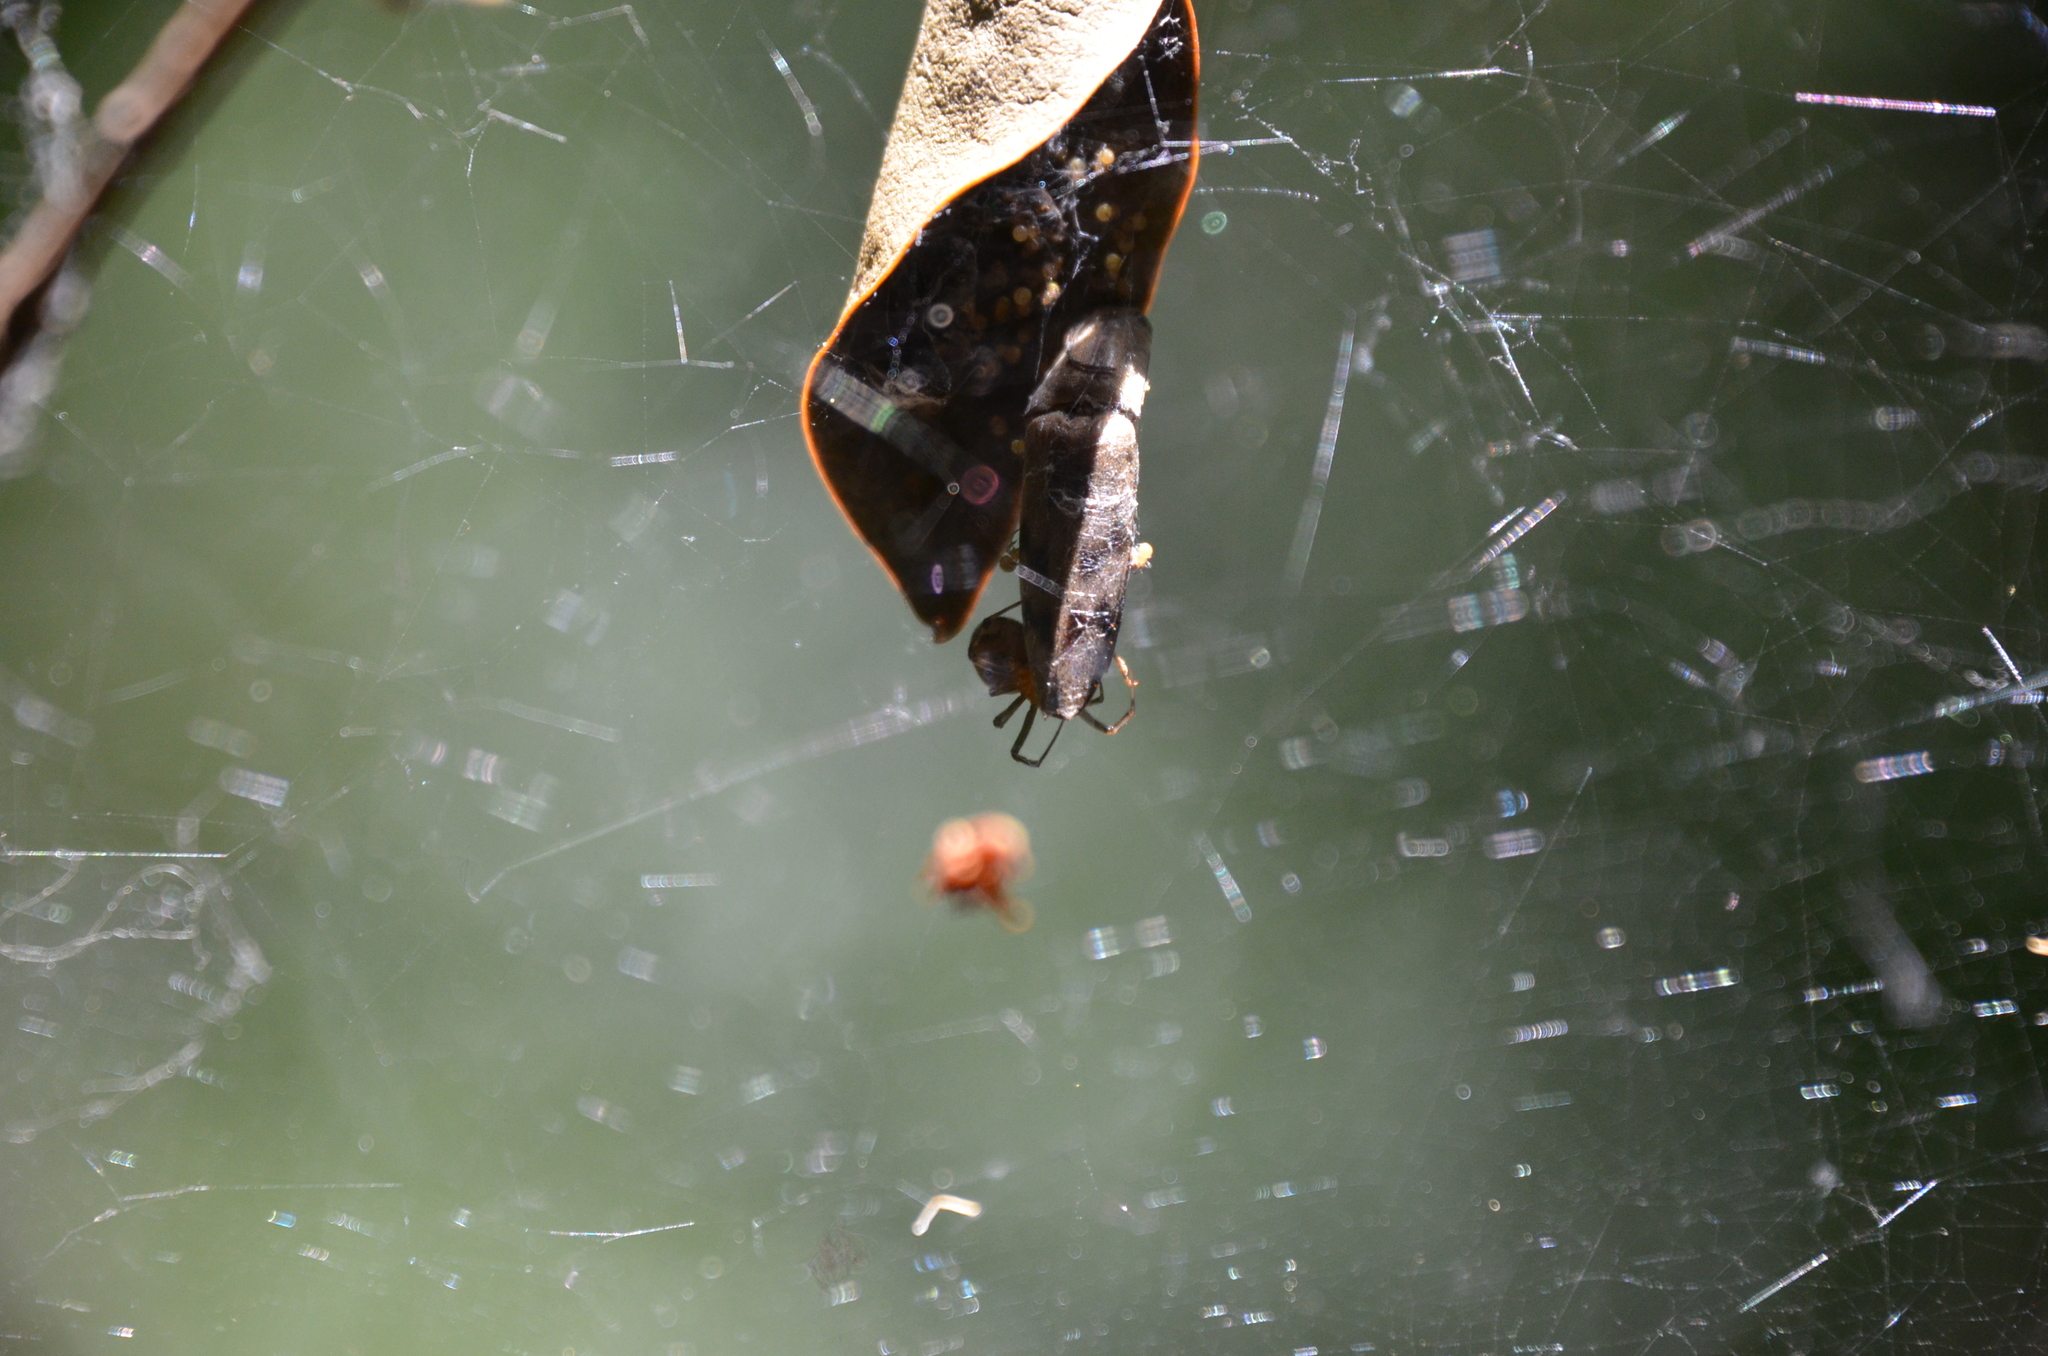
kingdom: Animalia
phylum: Arthropoda
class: Arachnida
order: Araneae
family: Theridiidae
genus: Nihonhimea
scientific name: Nihonhimea tesselata
